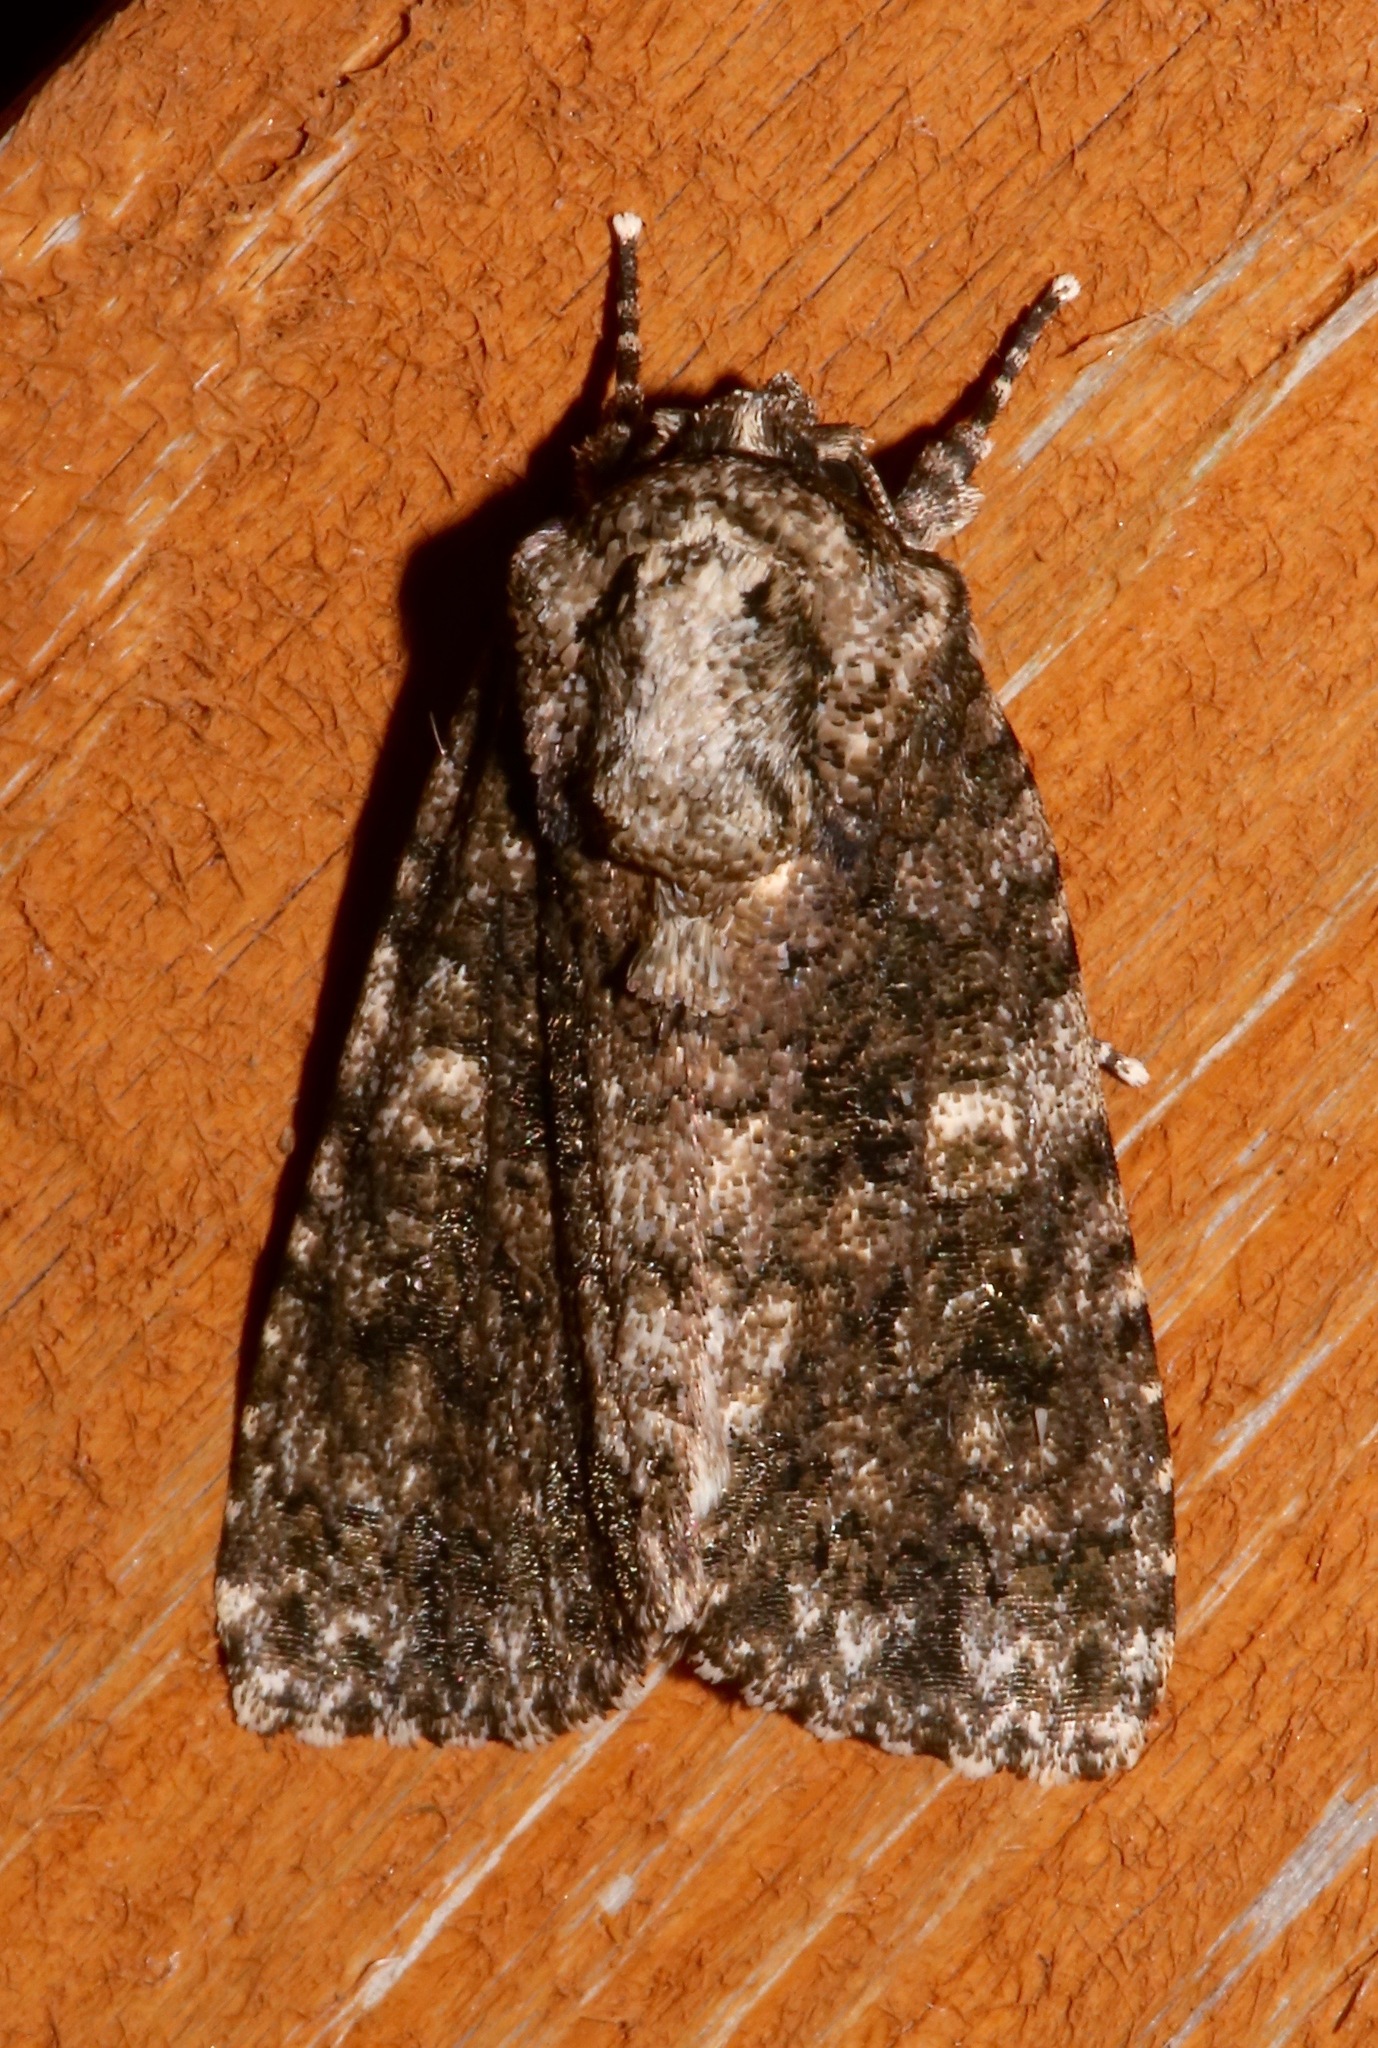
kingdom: Animalia
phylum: Arthropoda
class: Insecta
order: Lepidoptera
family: Noctuidae
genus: Acronicta
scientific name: Acronicta afflicta
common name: Afflicted dagger moth
